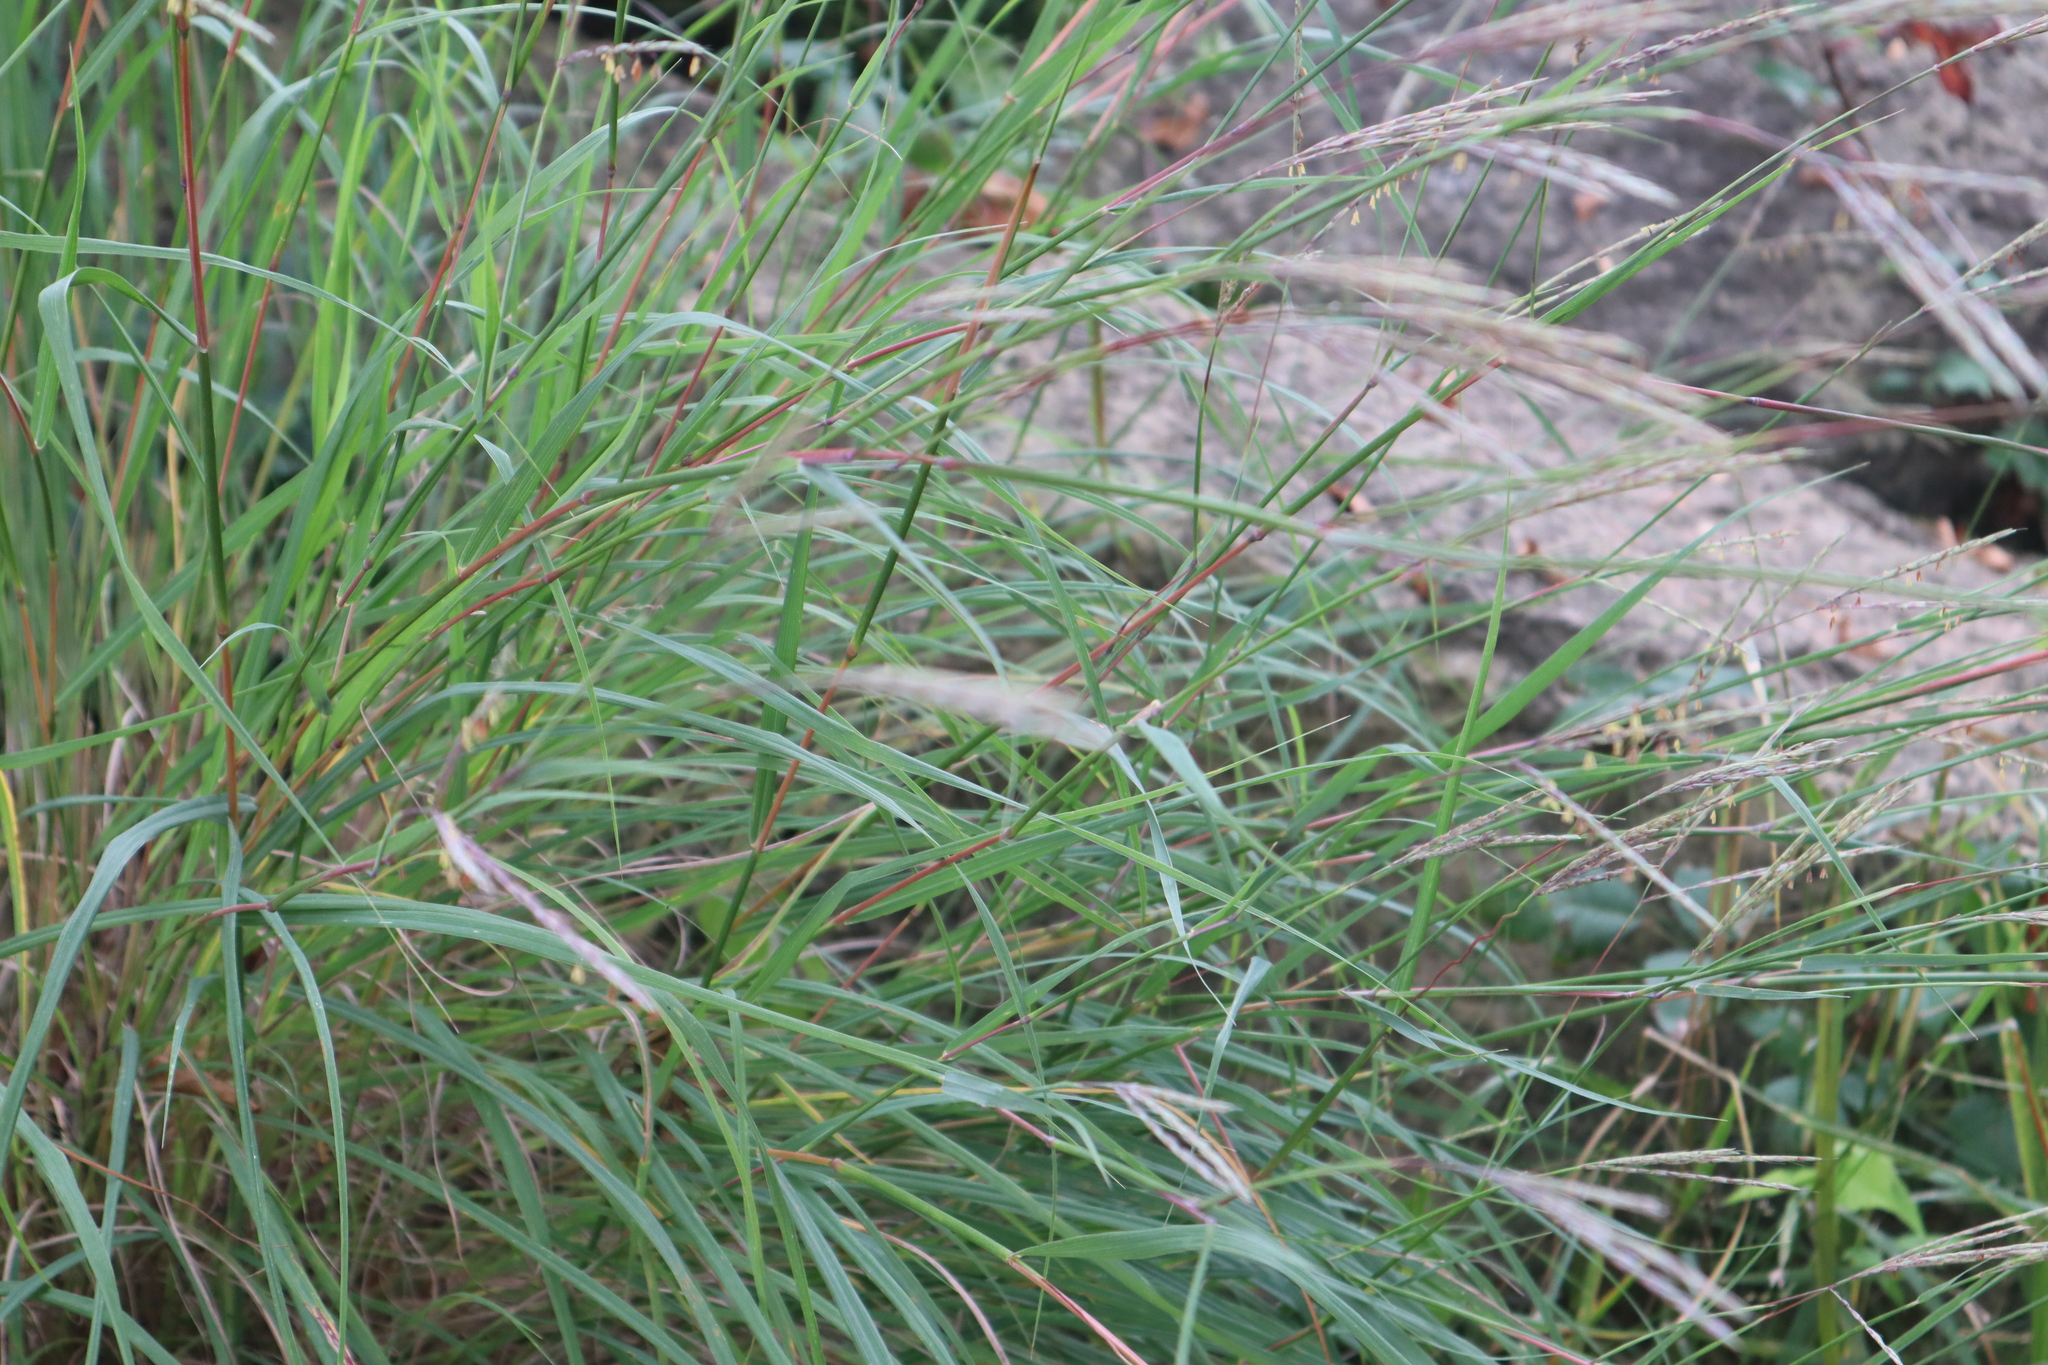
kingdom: Plantae
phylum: Tracheophyta
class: Liliopsida
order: Poales
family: Poaceae
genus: Andropogon
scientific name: Andropogon gerardi
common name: Big bluestem
